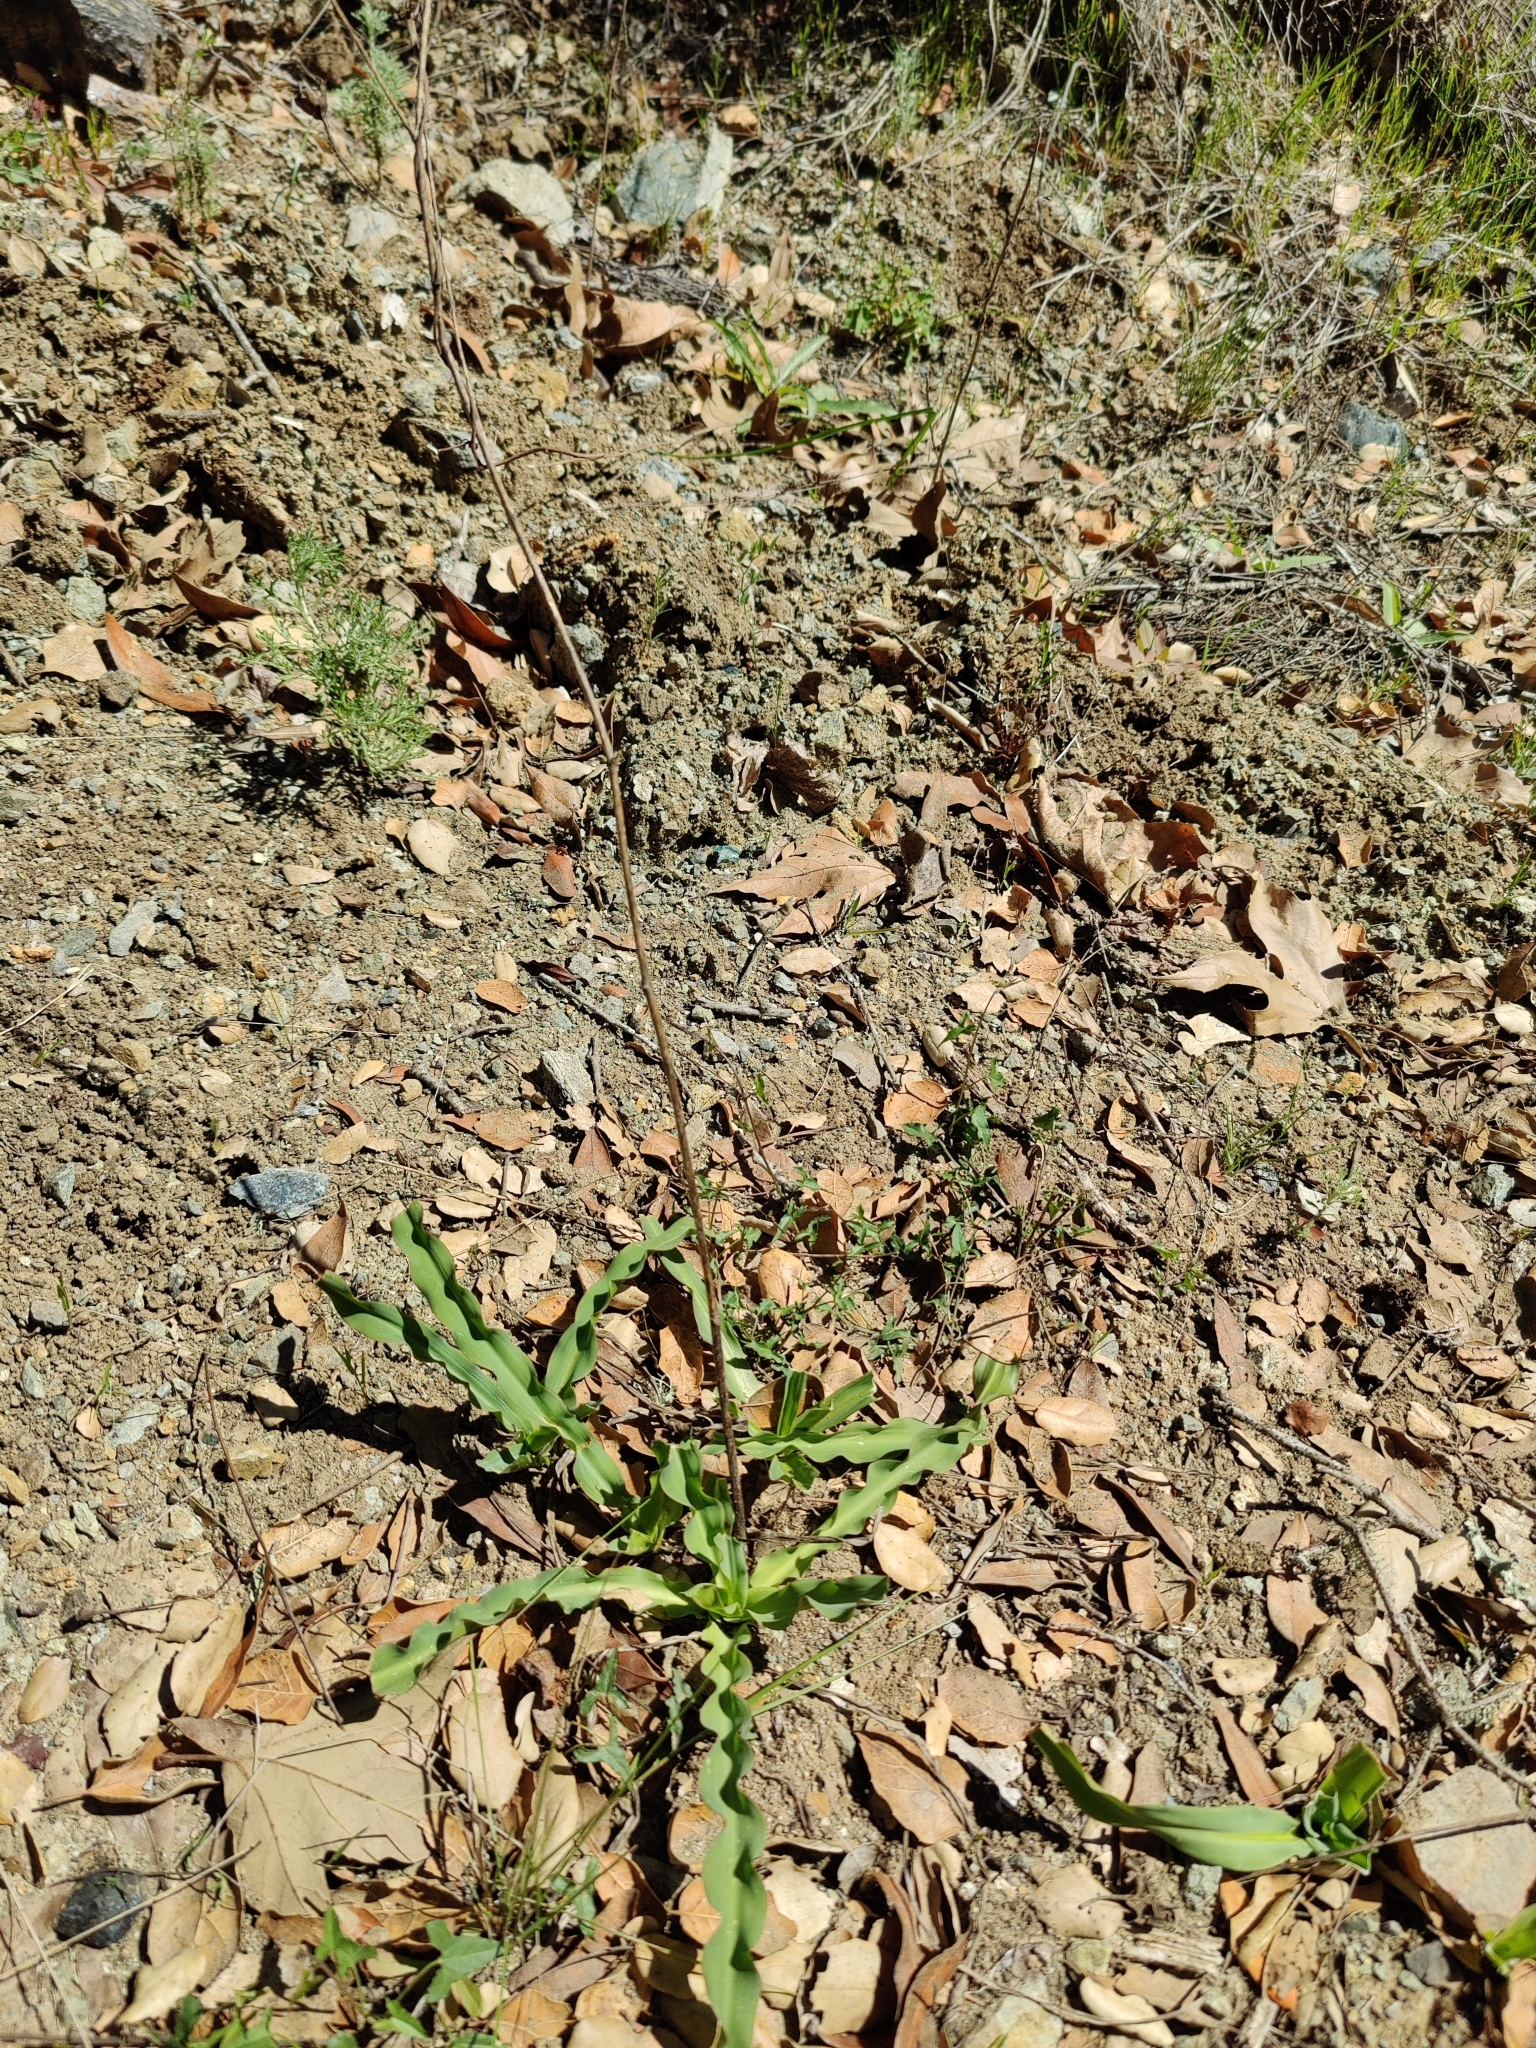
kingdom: Plantae
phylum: Tracheophyta
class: Liliopsida
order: Asparagales
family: Asparagaceae
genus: Chlorogalum
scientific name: Chlorogalum pomeridianum
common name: Amole
